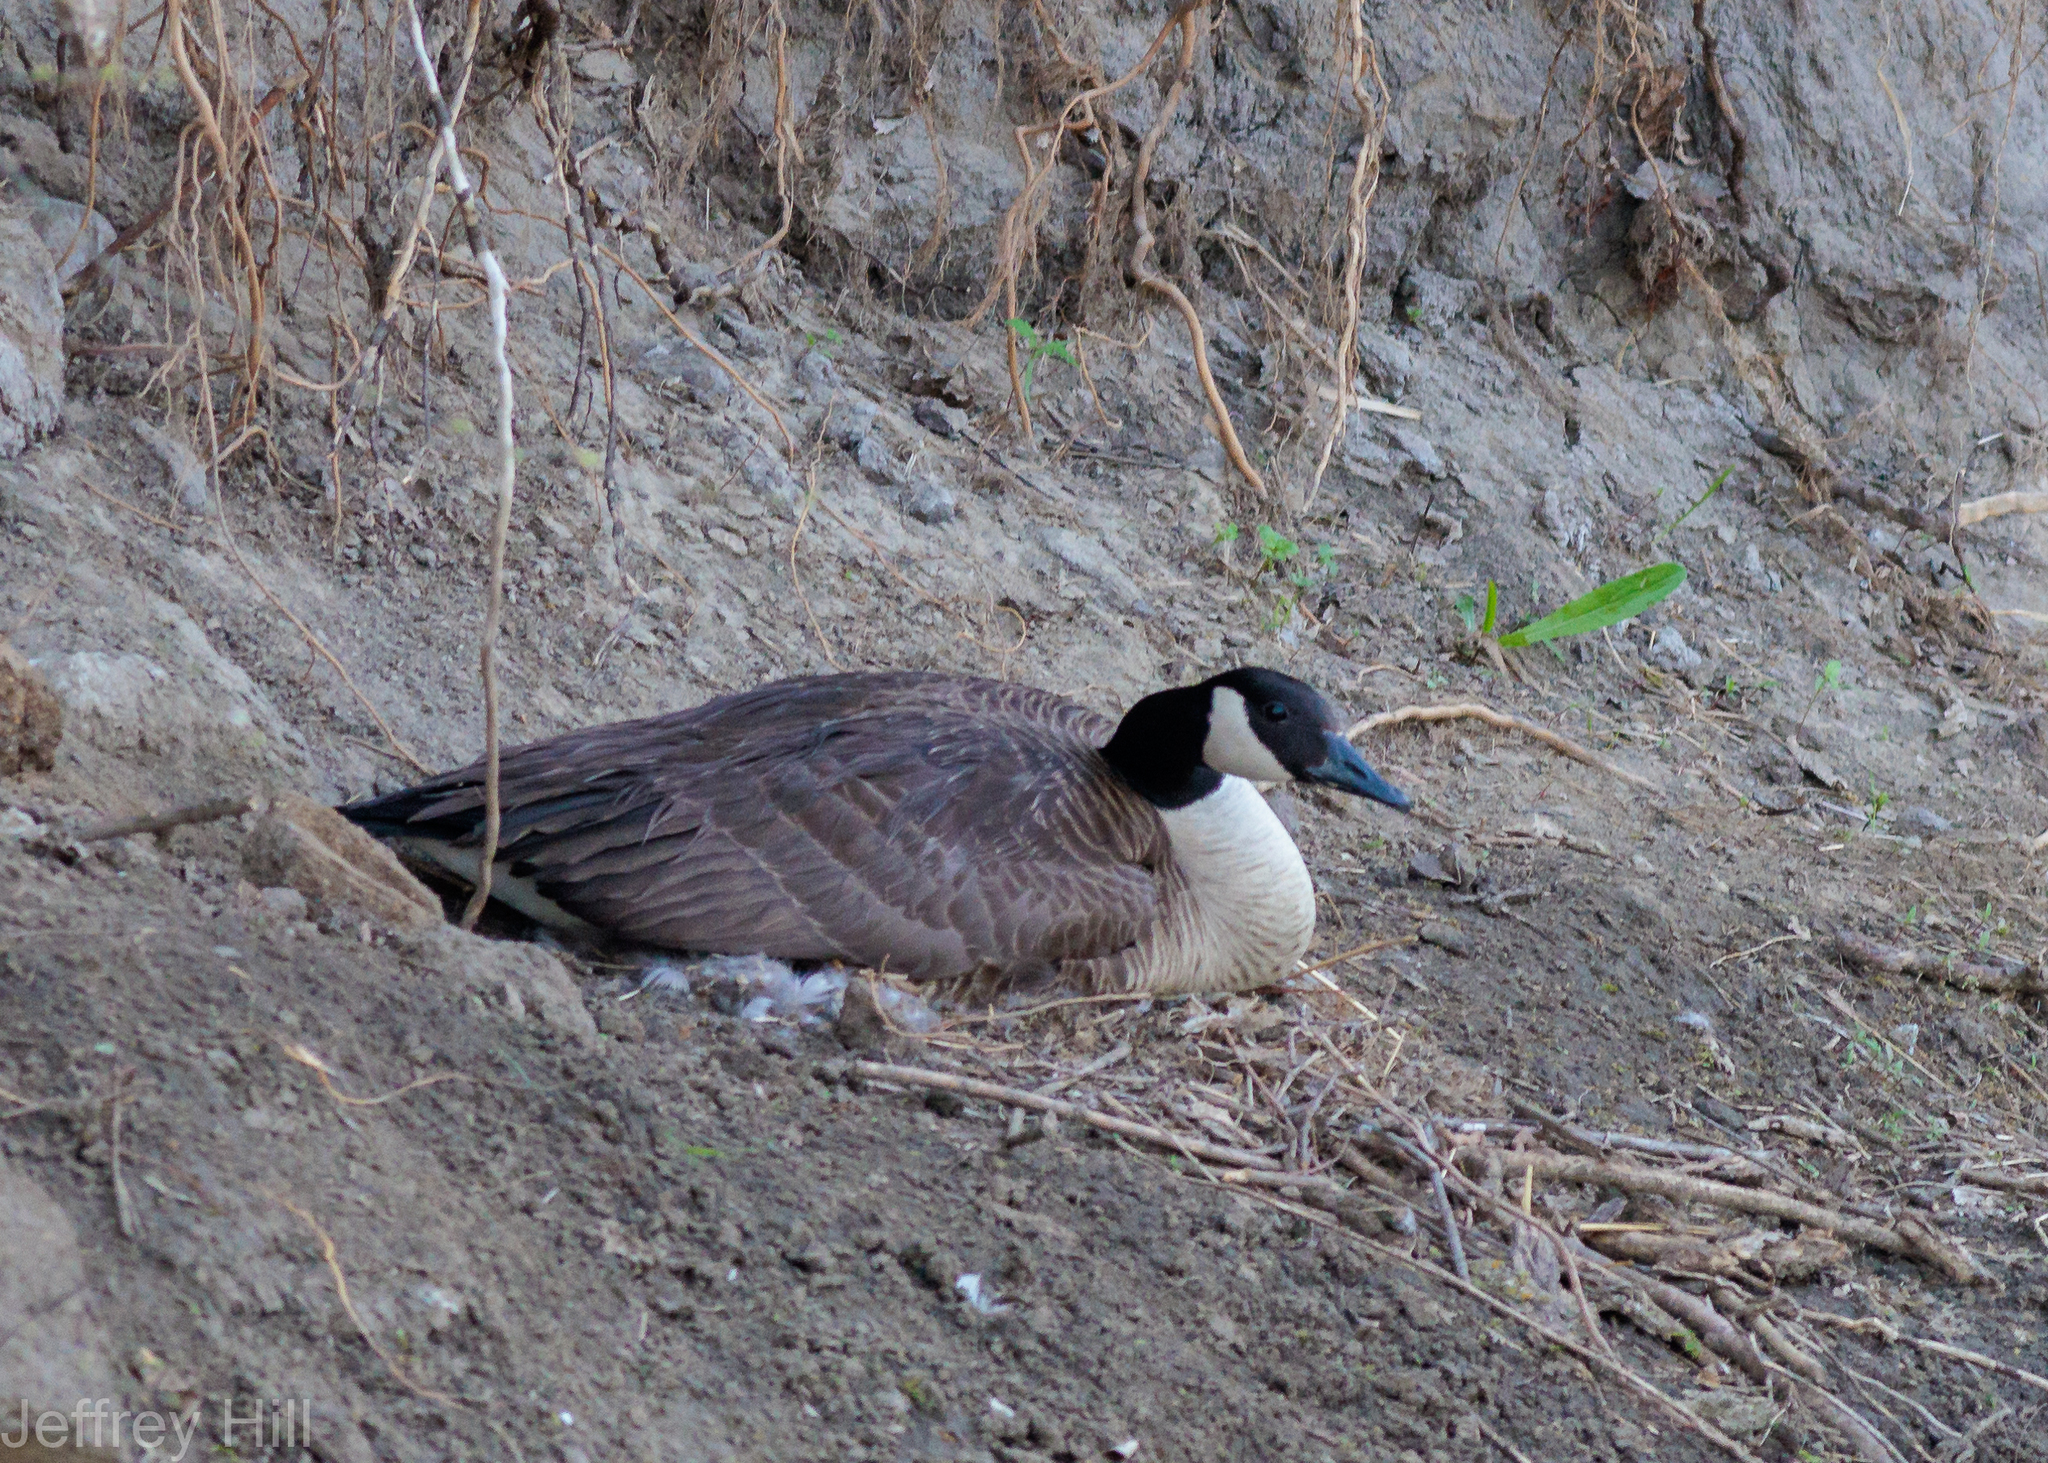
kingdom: Animalia
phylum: Chordata
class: Aves
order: Anseriformes
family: Anatidae
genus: Branta
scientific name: Branta canadensis
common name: Canada goose
